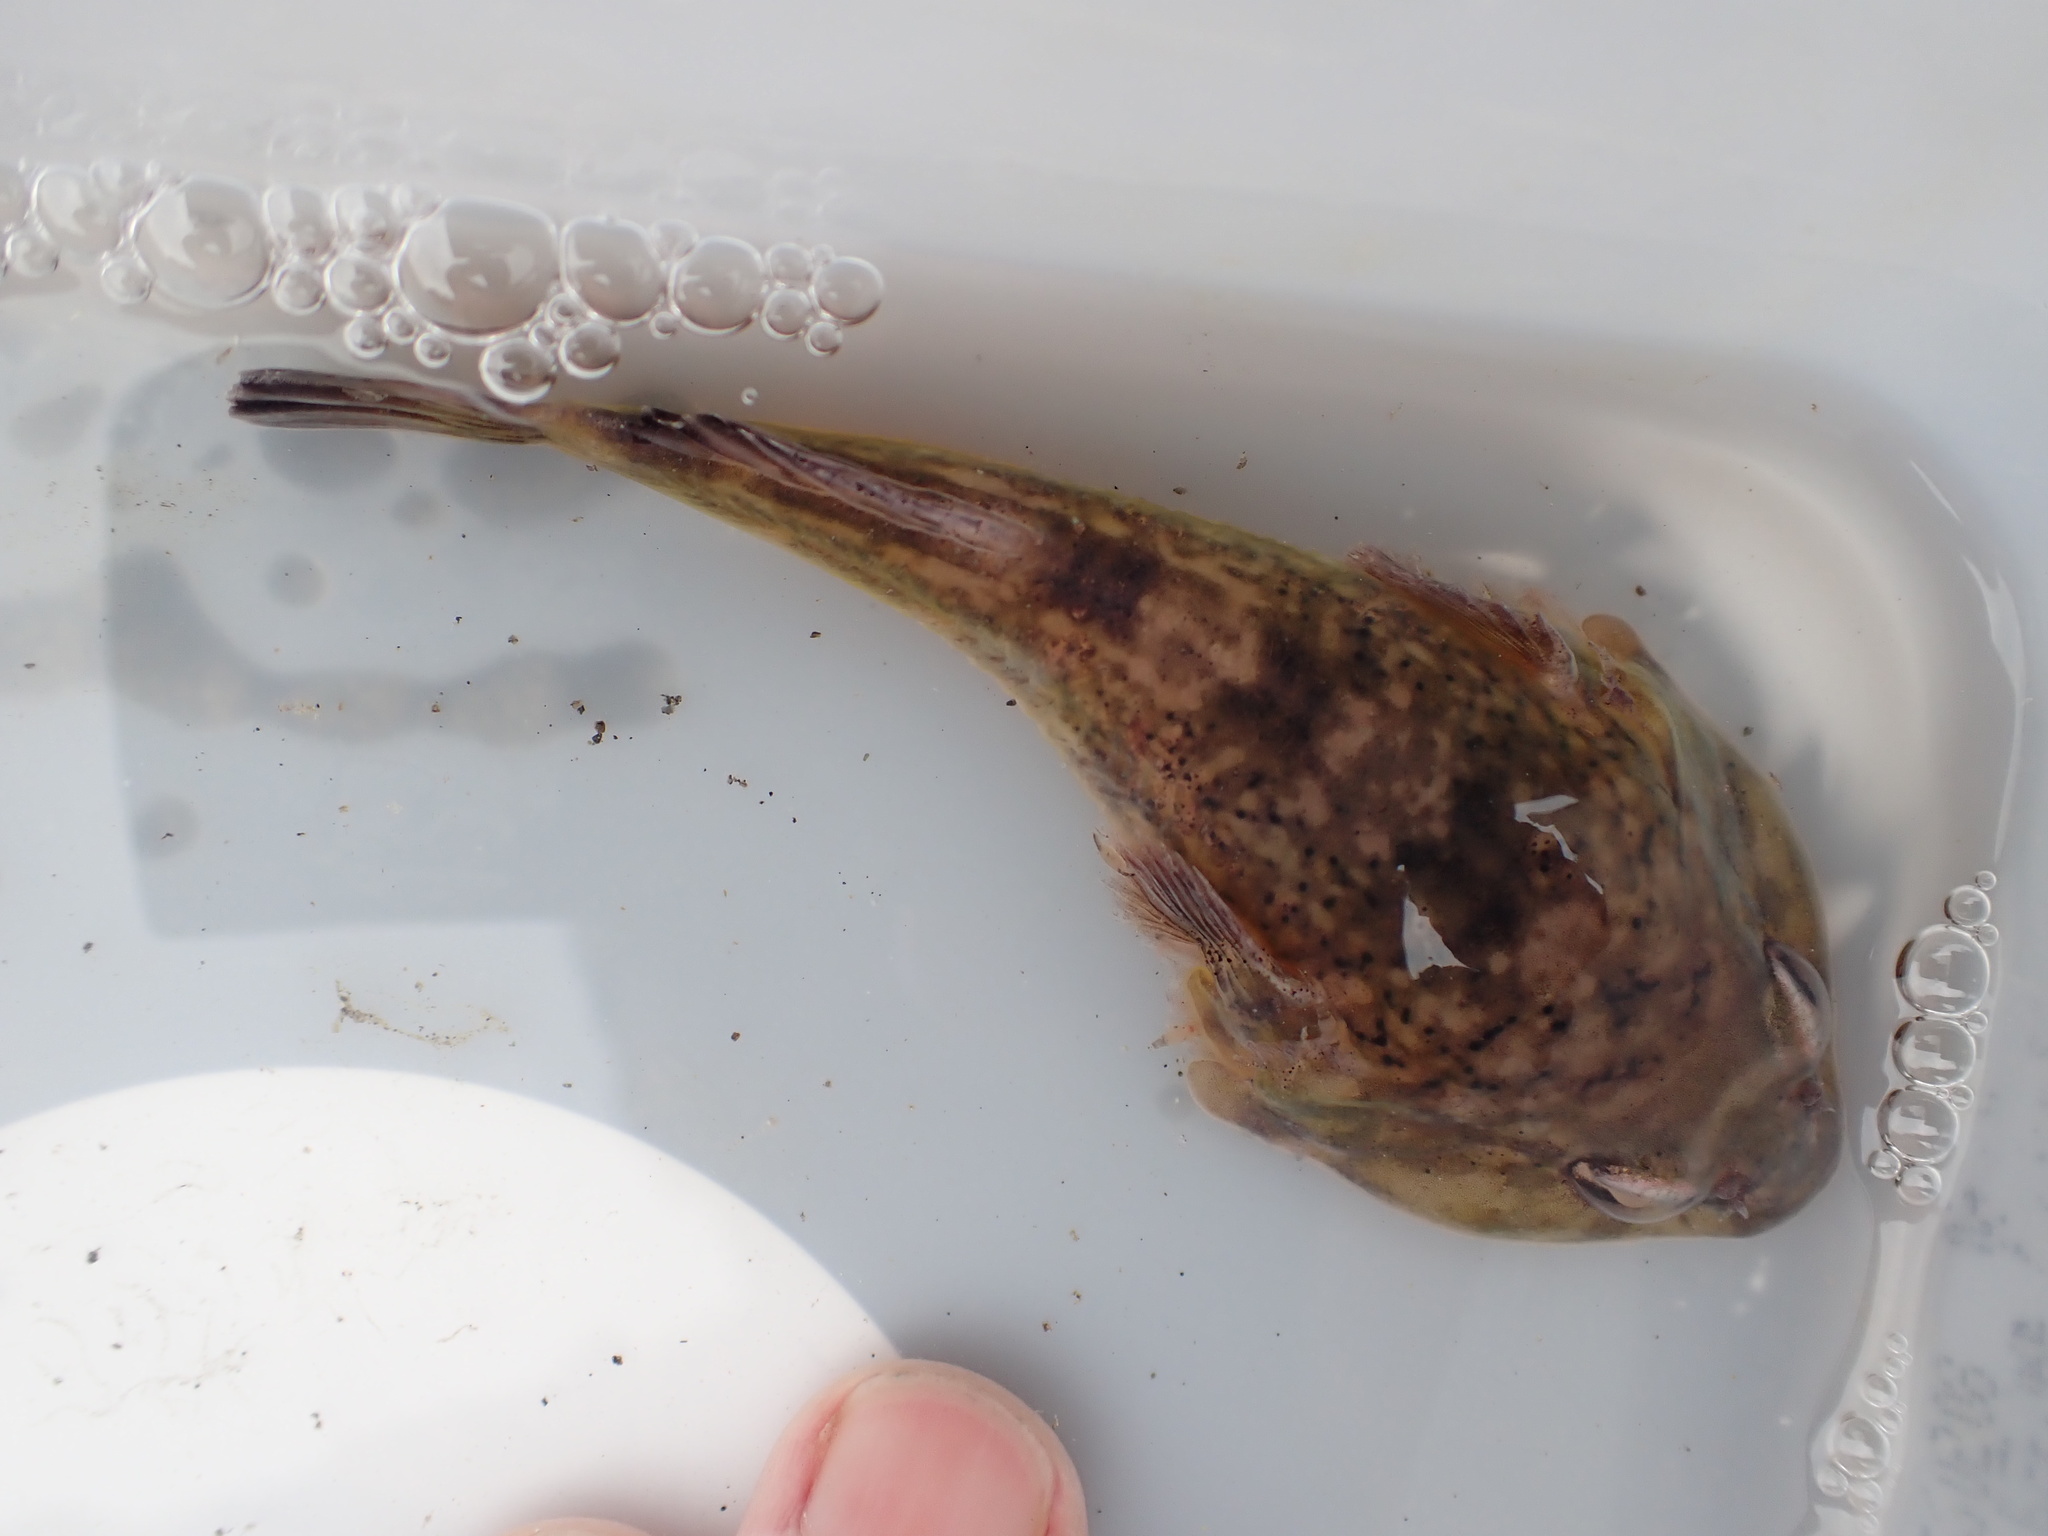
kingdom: Animalia
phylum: Chordata
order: Gobiesociformes
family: Gobiesocidae
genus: Diplocrepis
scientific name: Diplocrepis puniceus
